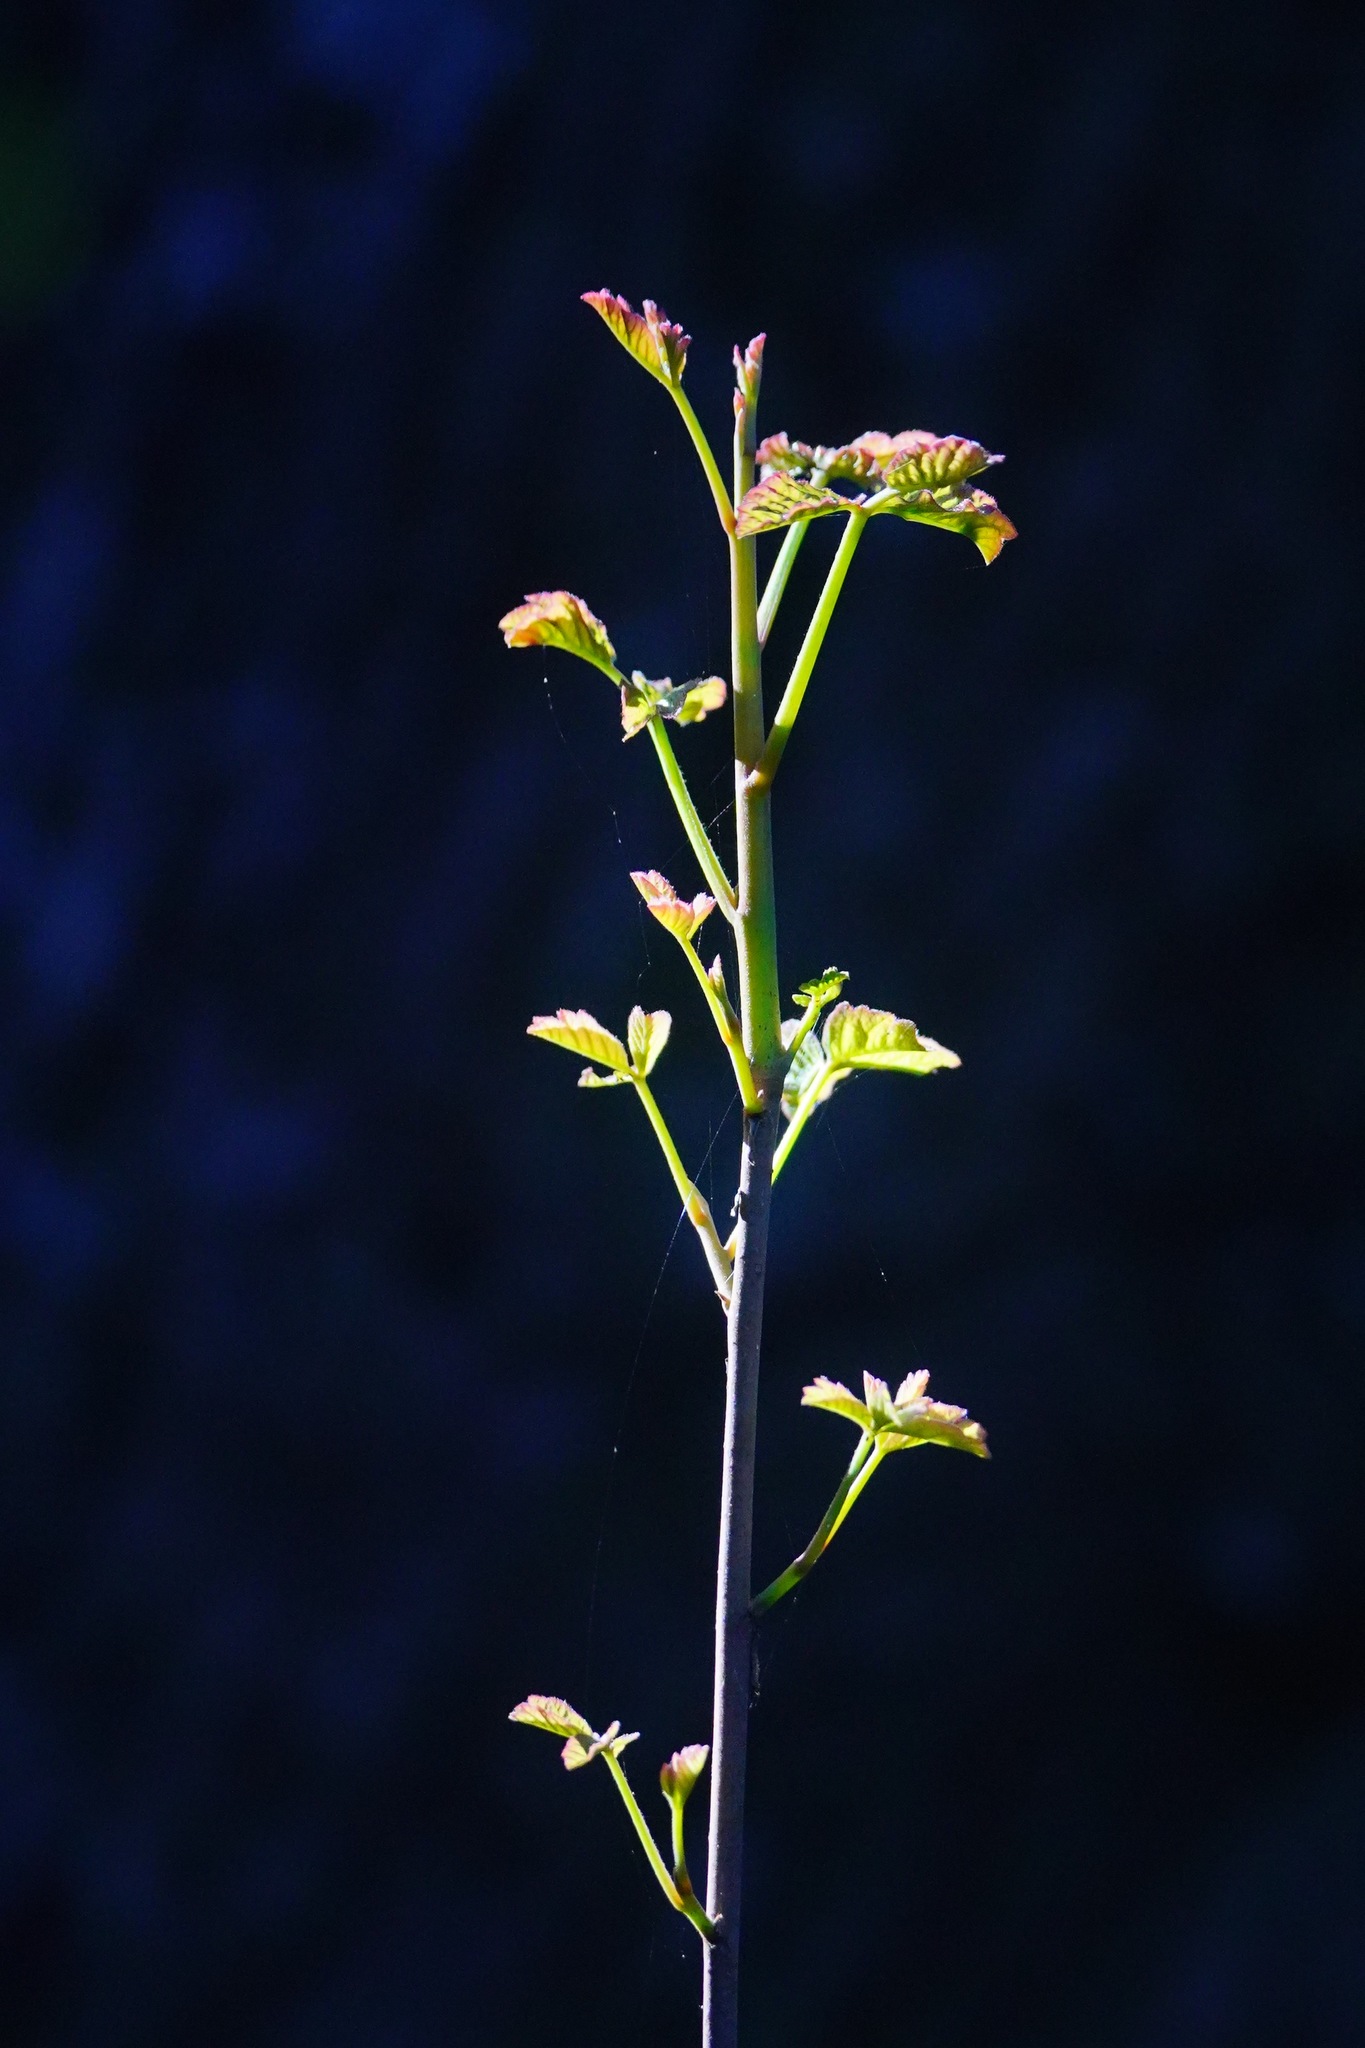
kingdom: Plantae
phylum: Tracheophyta
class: Magnoliopsida
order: Sapindales
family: Anacardiaceae
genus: Toxicodendron
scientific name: Toxicodendron diversilobum
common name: Pacific poison-oak
